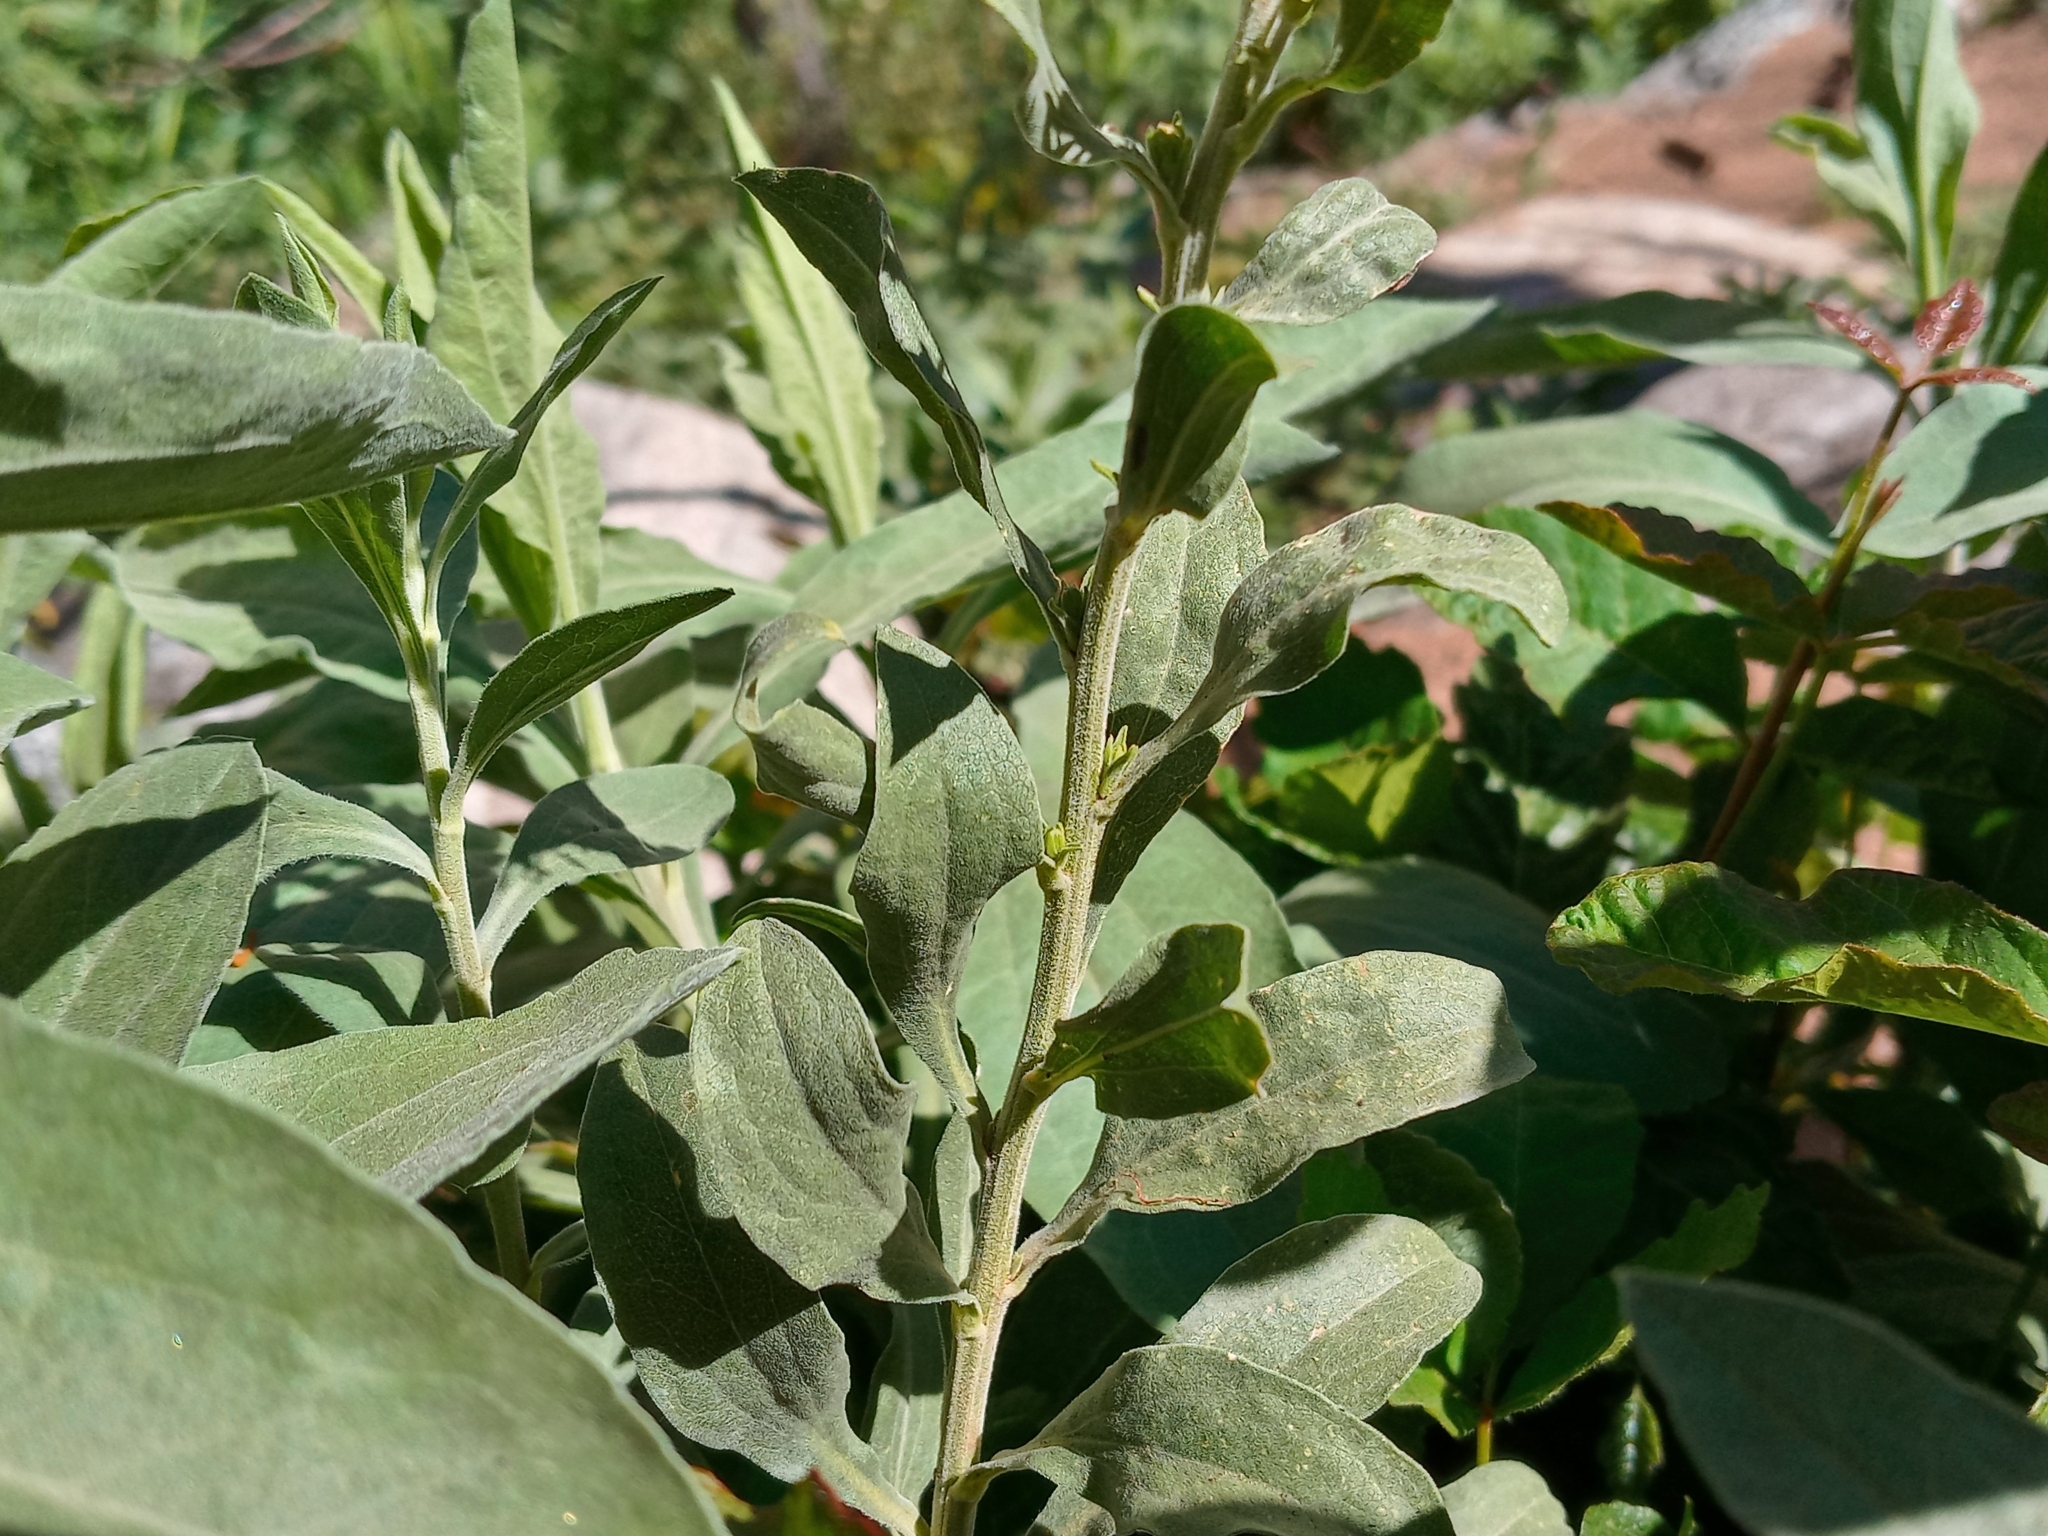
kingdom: Plantae
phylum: Tracheophyta
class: Magnoliopsida
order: Asterales
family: Asteraceae
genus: Solidago
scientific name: Solidago californica
